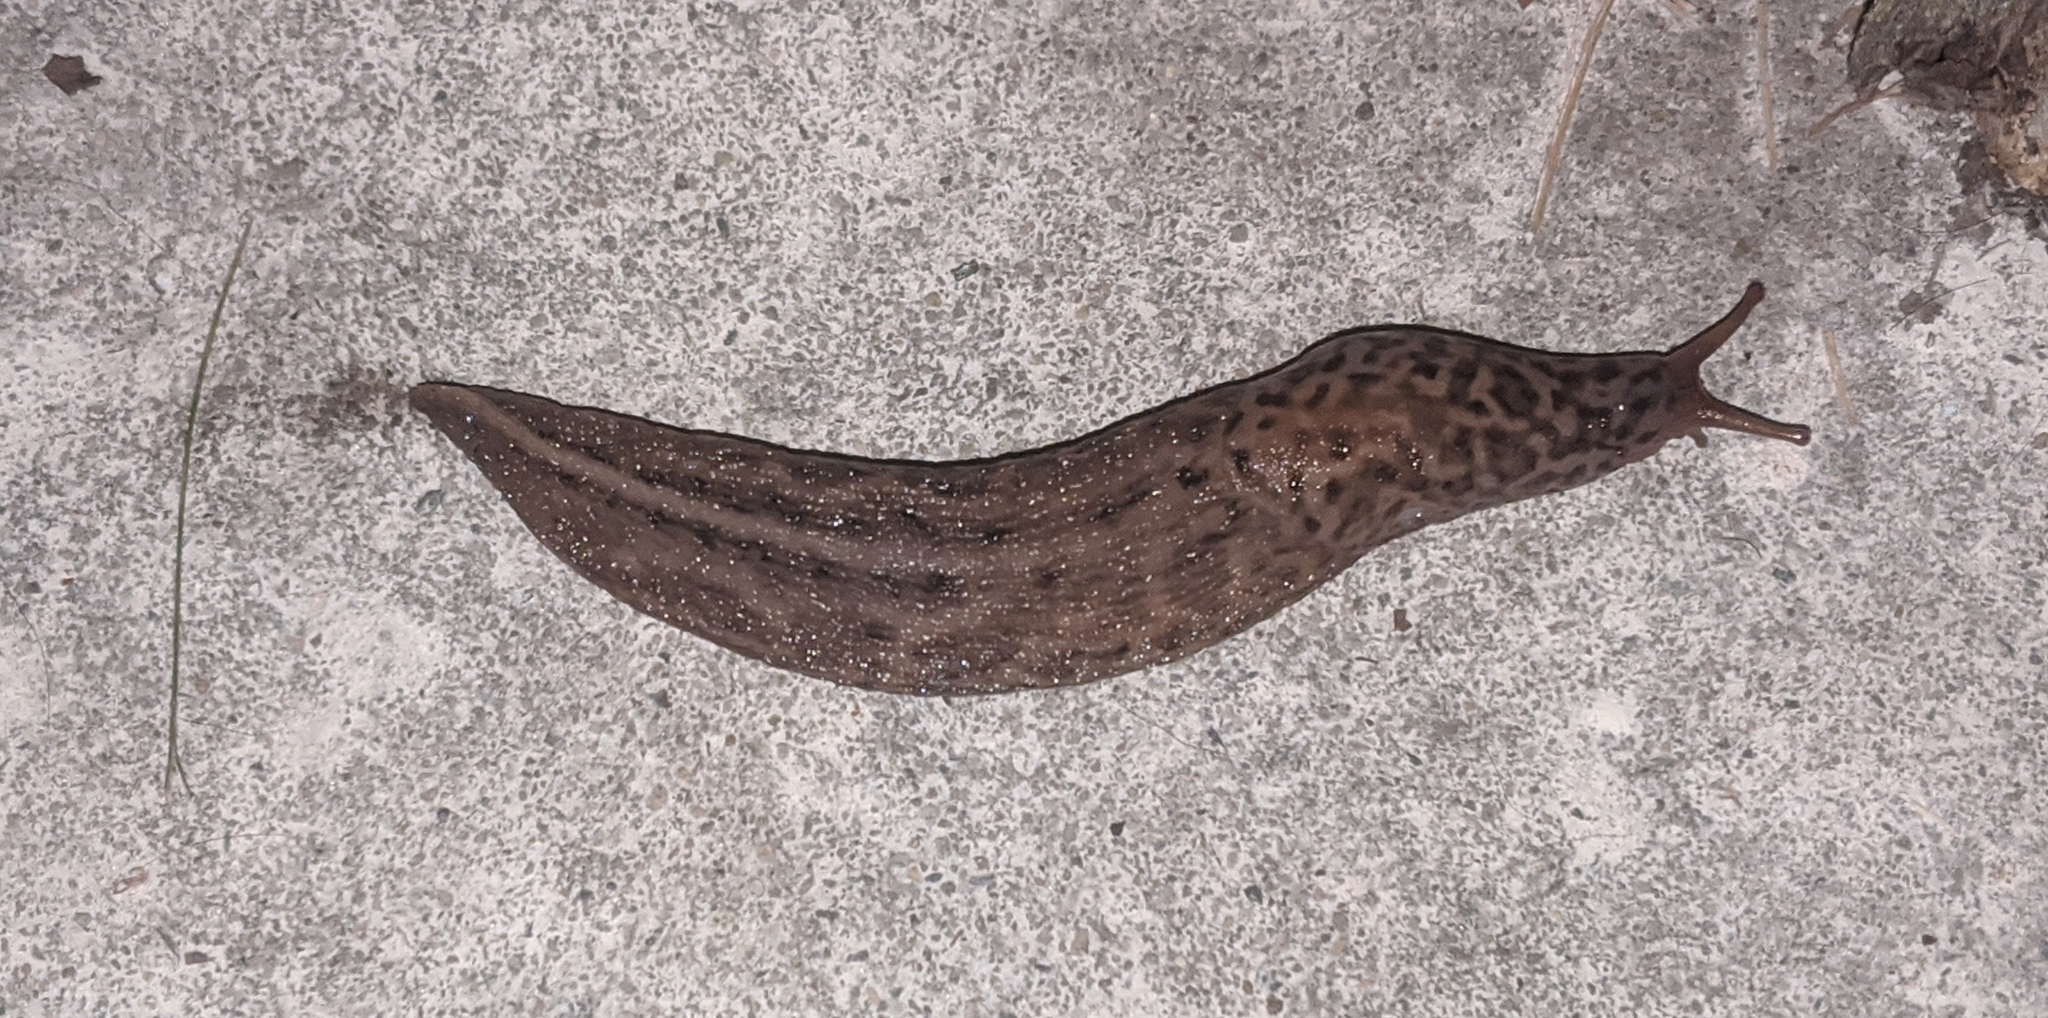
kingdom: Animalia
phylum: Mollusca
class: Gastropoda
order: Stylommatophora
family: Limacidae
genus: Limax
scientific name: Limax maximus
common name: Great grey slug
